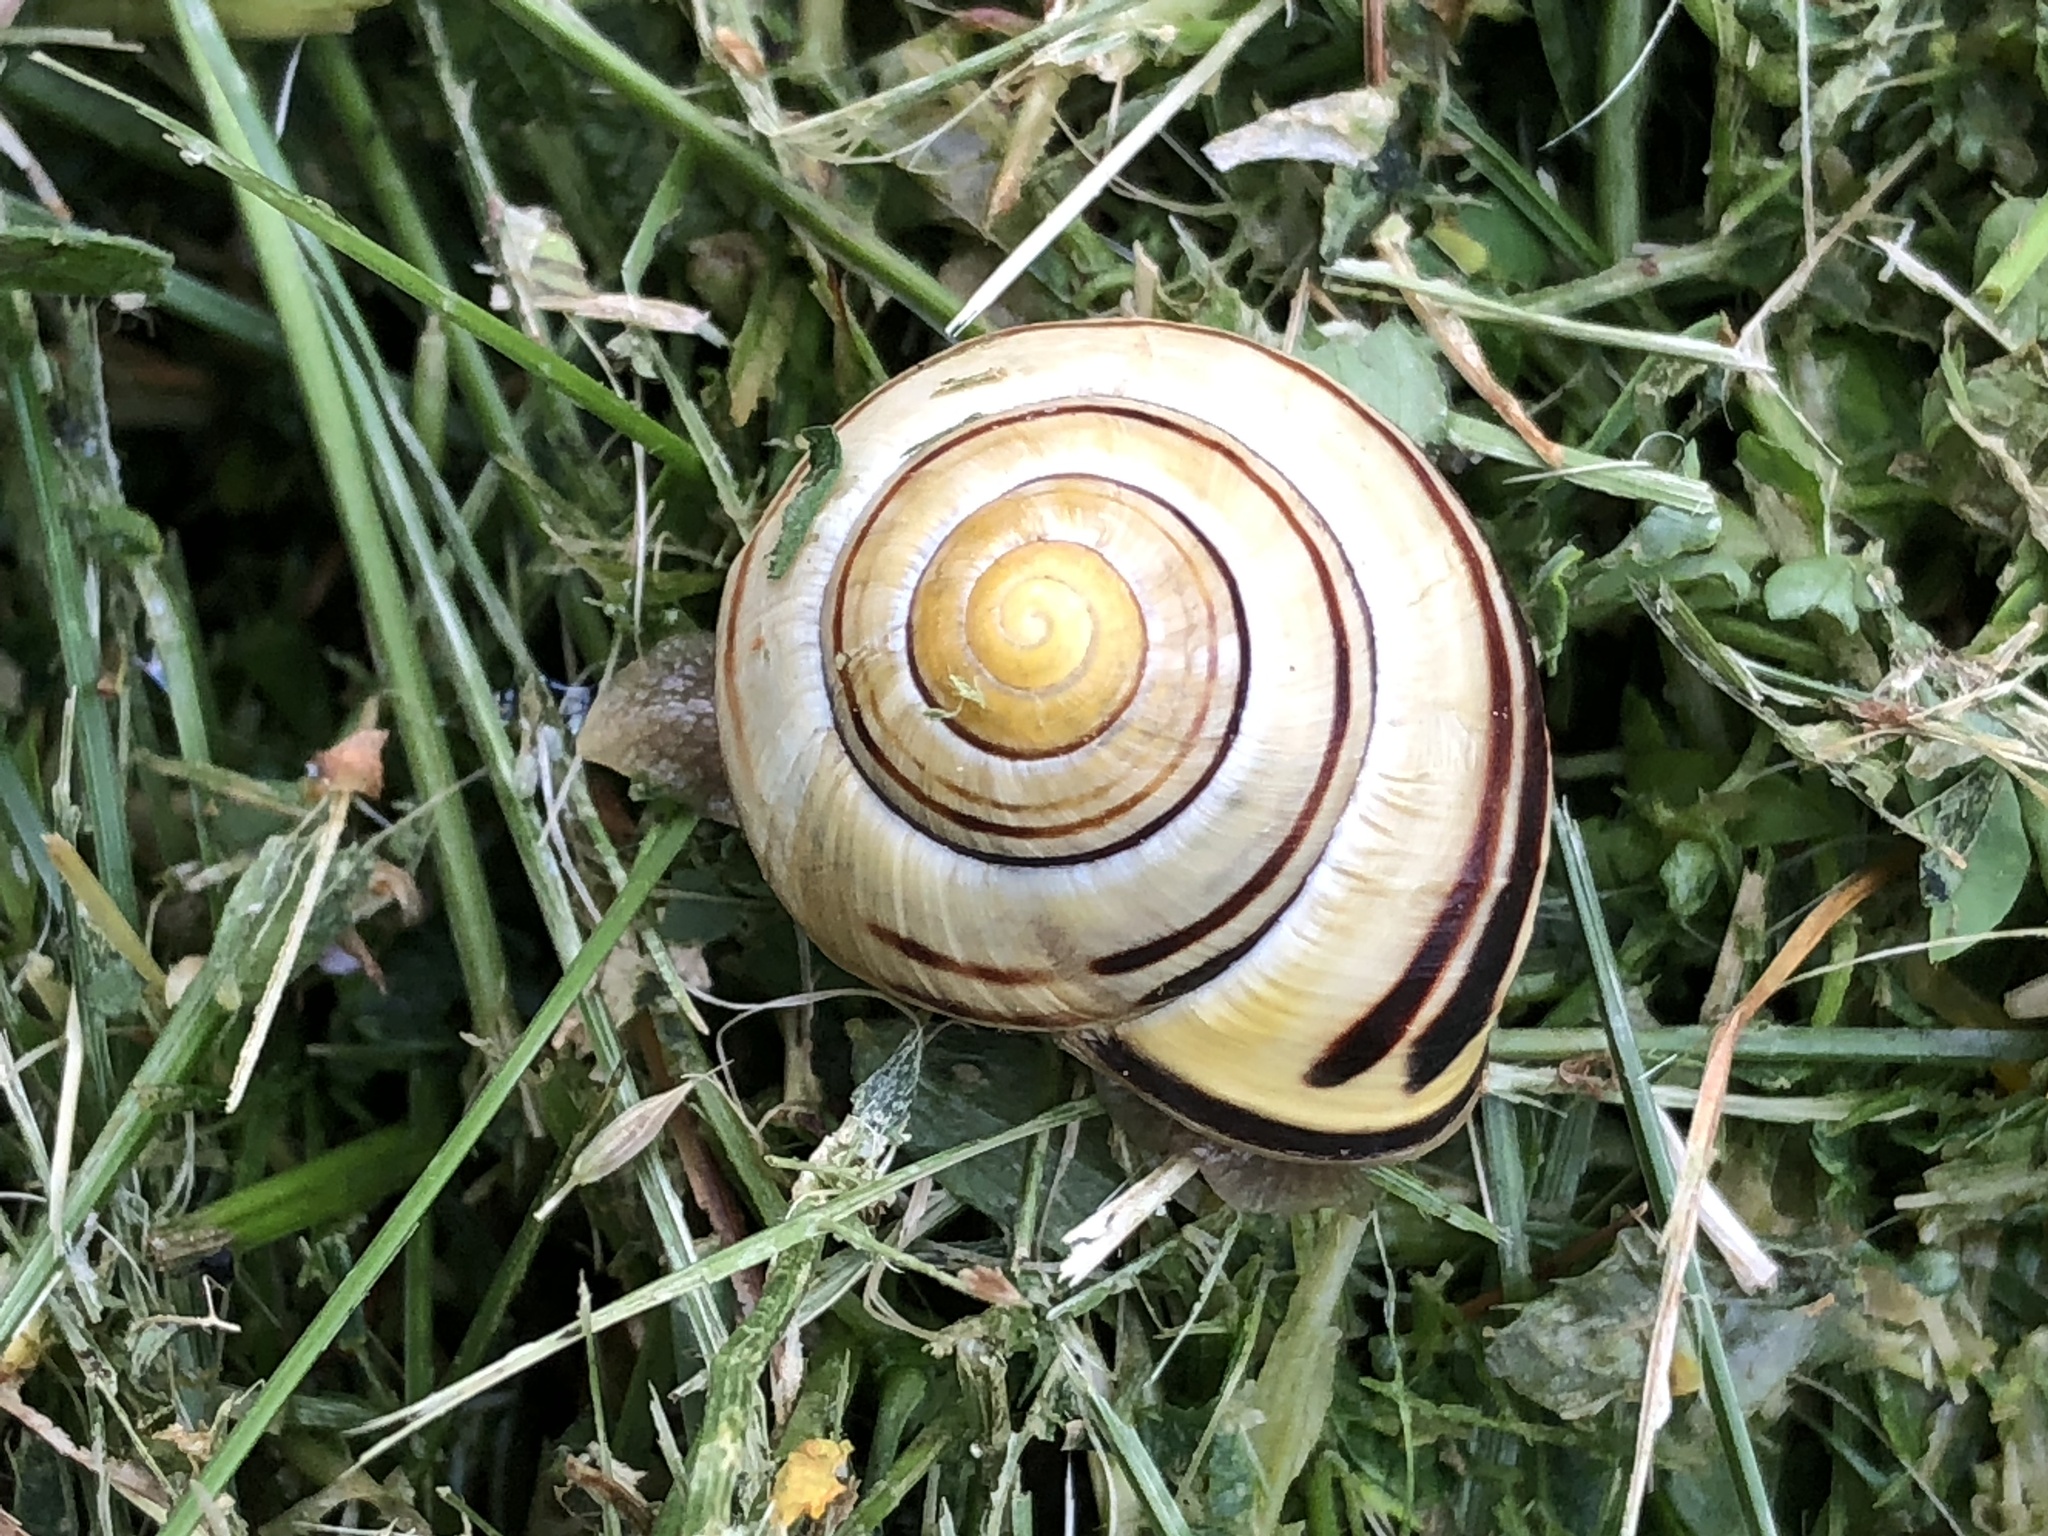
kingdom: Animalia
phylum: Mollusca
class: Gastropoda
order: Stylommatophora
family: Helicidae
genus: Cepaea
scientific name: Cepaea nemoralis
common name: Grovesnail
